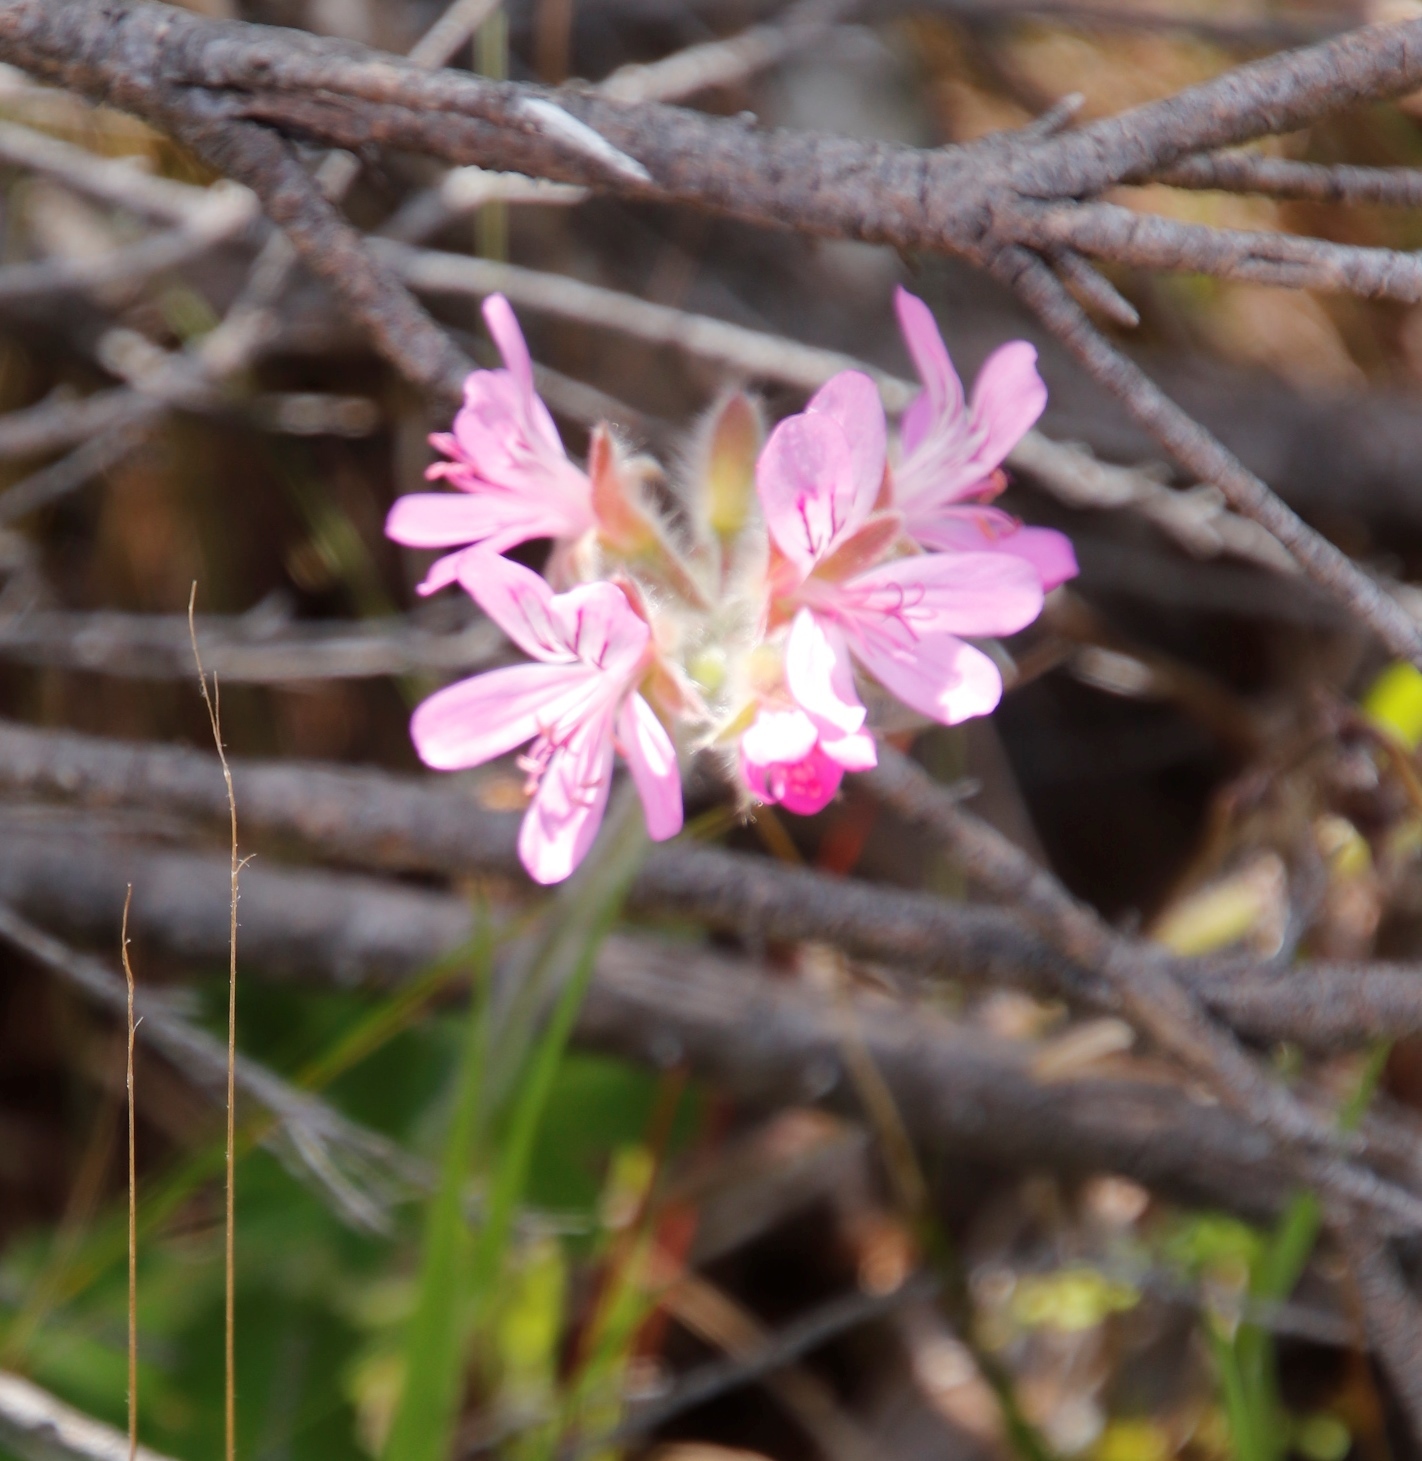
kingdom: Plantae
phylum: Tracheophyta
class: Magnoliopsida
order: Geraniales
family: Geraniaceae
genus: Pelargonium
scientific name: Pelargonium capitatum
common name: Rose scented geranium
